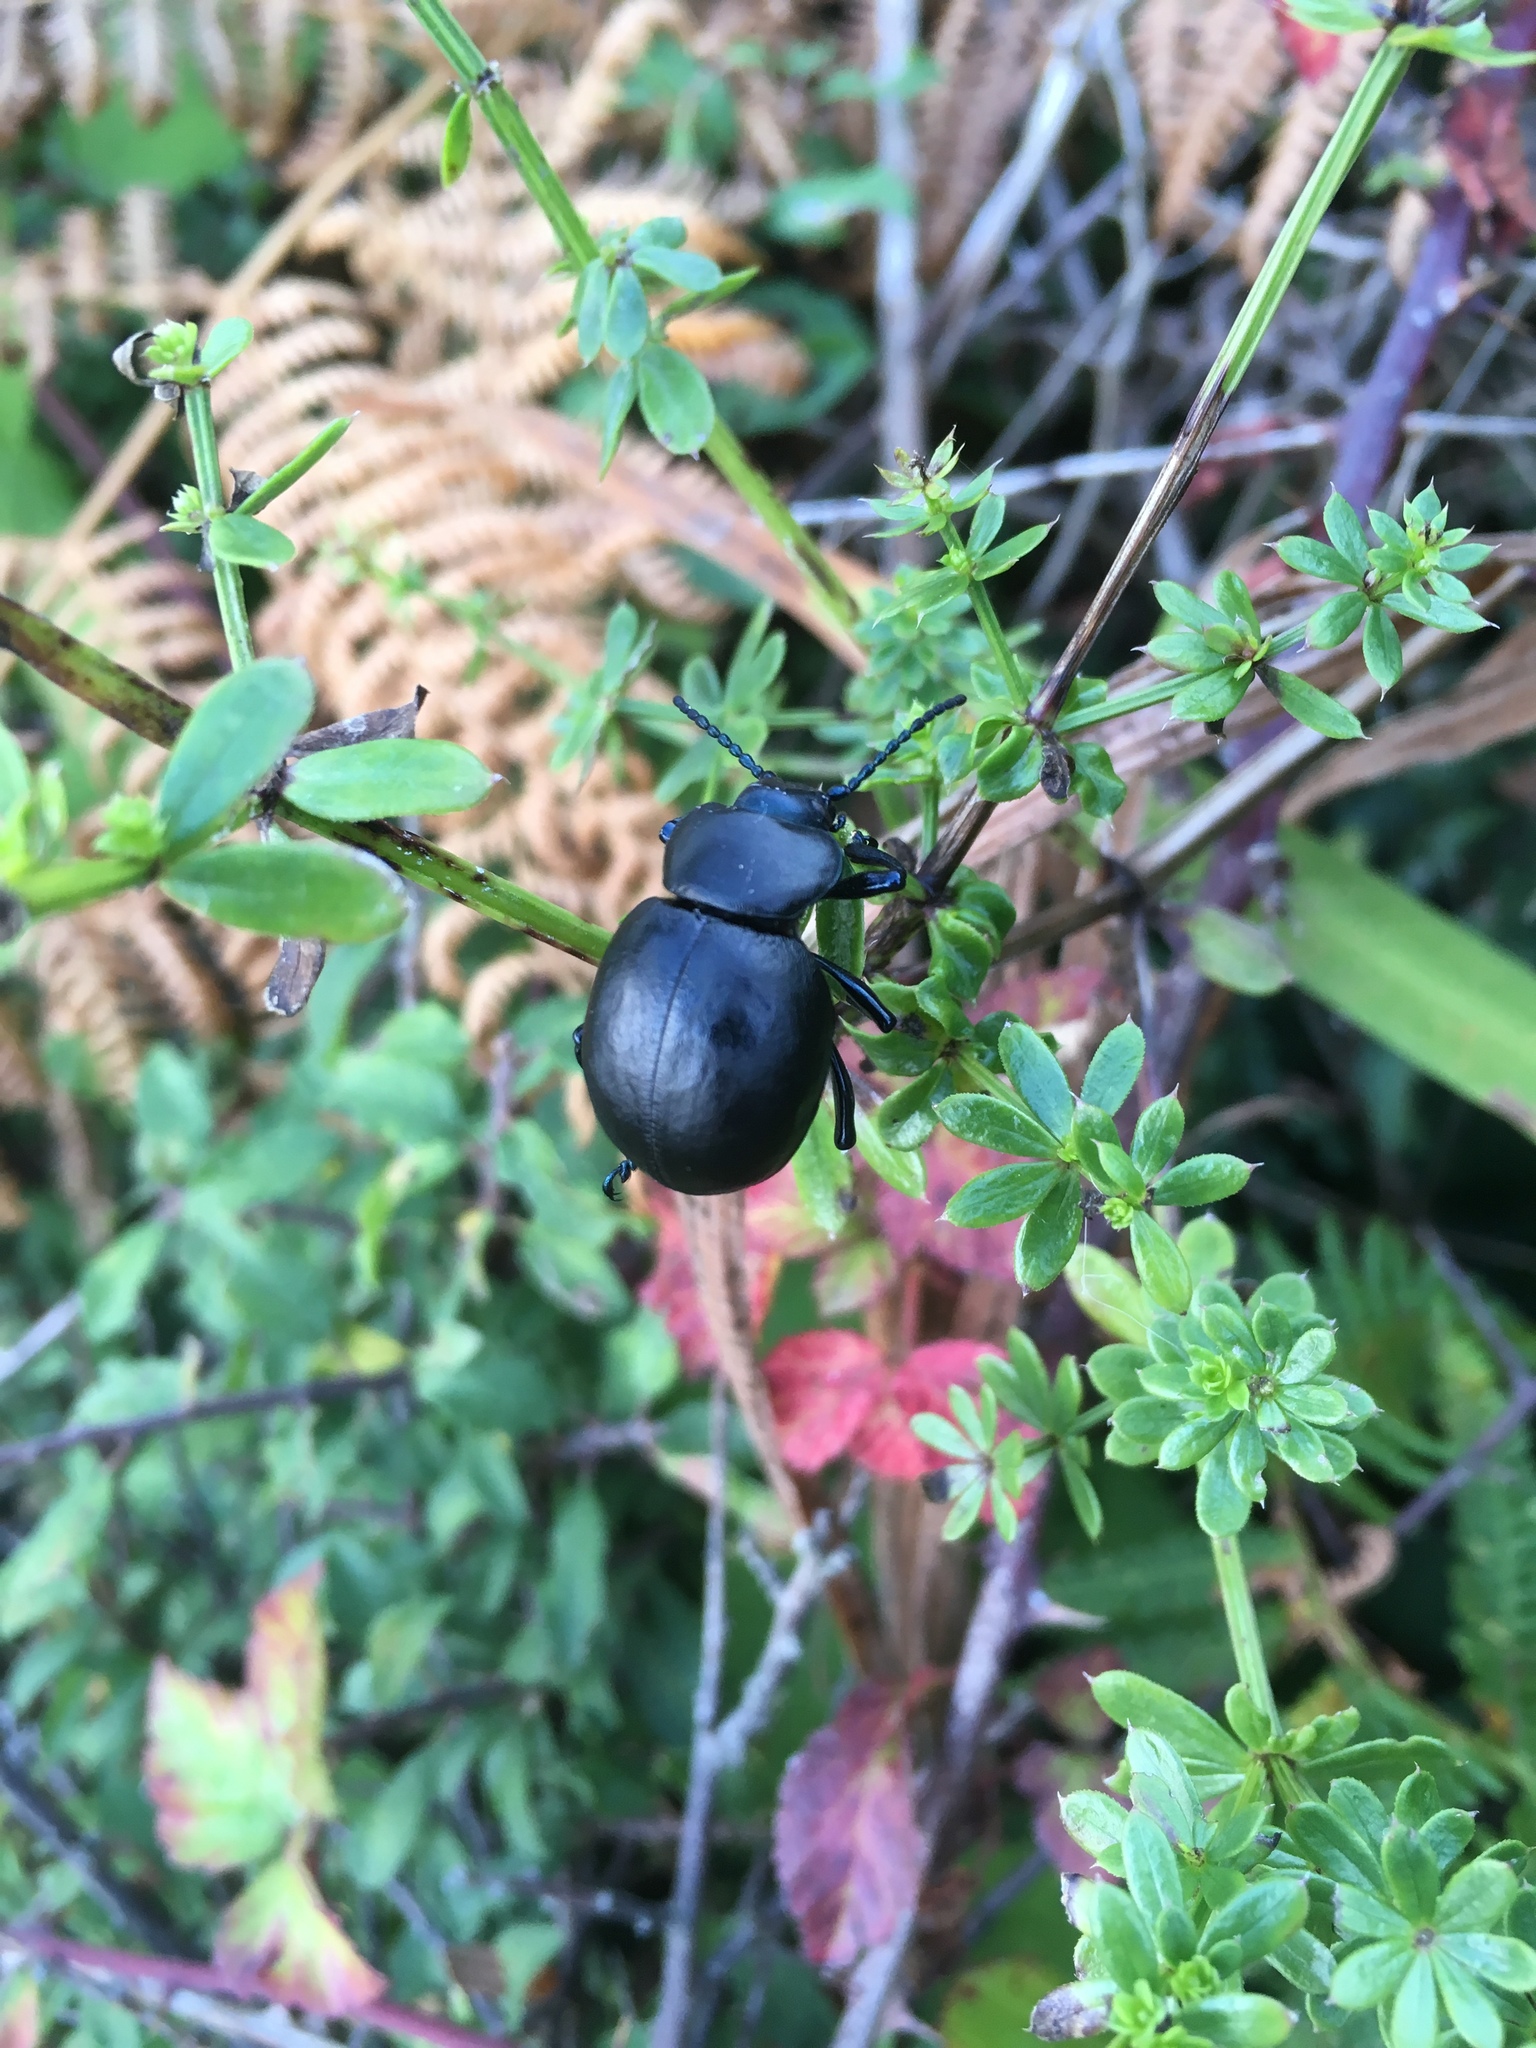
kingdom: Animalia
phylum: Arthropoda
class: Insecta
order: Coleoptera
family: Chrysomelidae
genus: Timarcha
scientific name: Timarcha tenebricosa
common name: Bloody-nosed beetle
